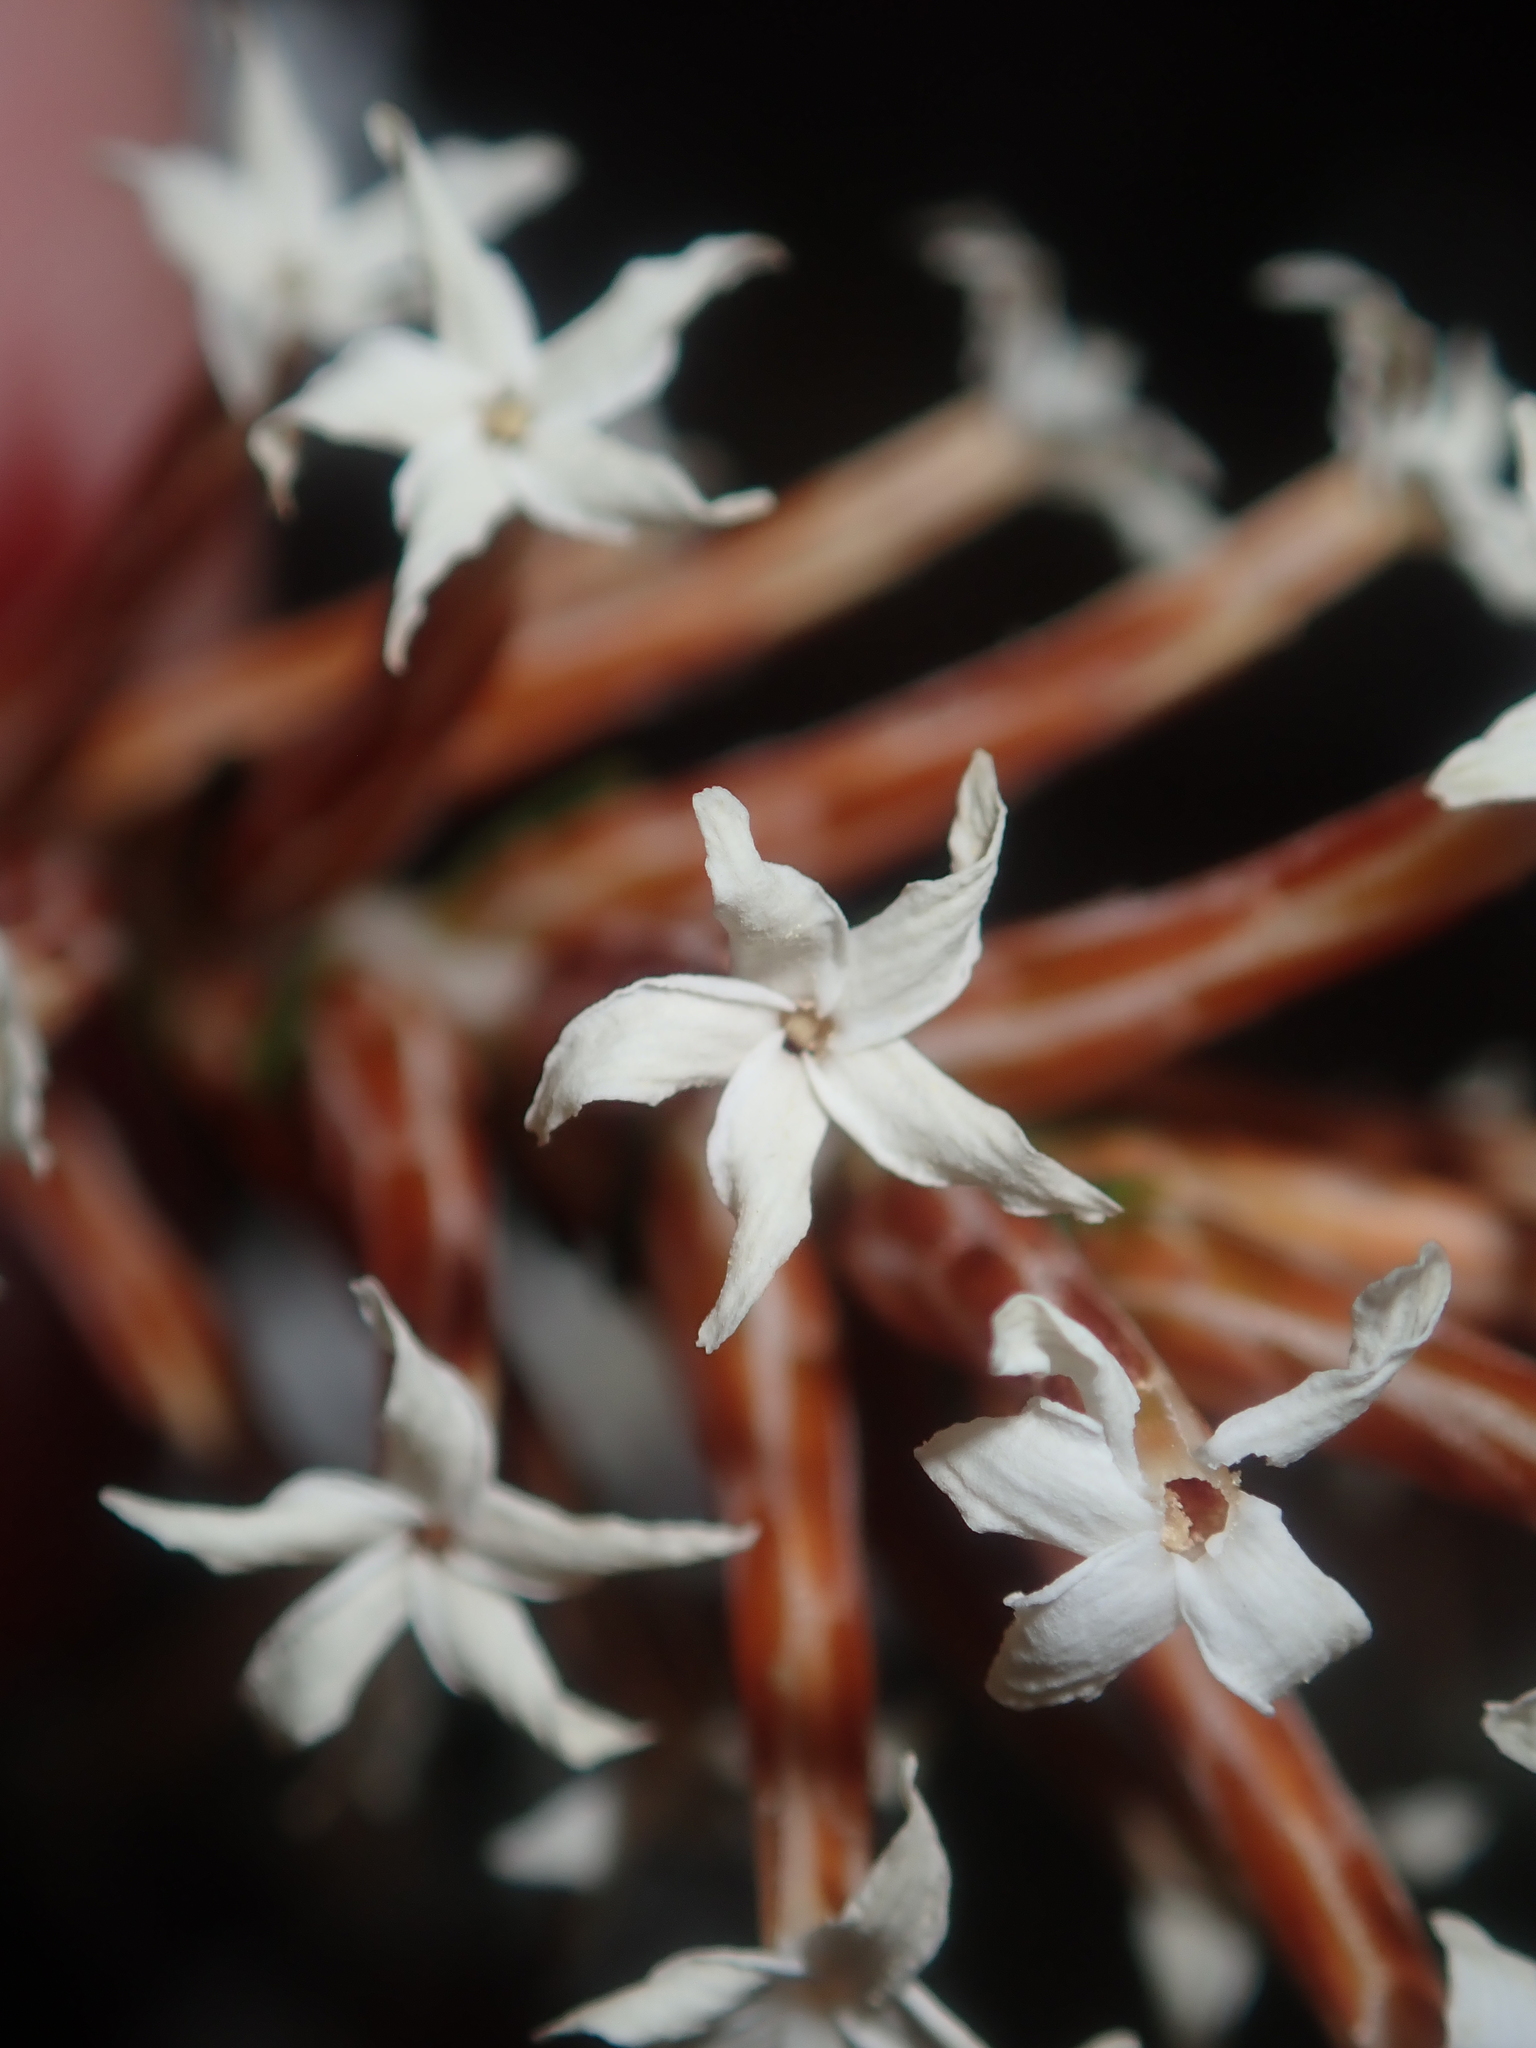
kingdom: Plantae
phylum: Tracheophyta
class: Magnoliopsida
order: Ericales
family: Ericaceae
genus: Lysinema
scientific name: Lysinema pentapetalum
